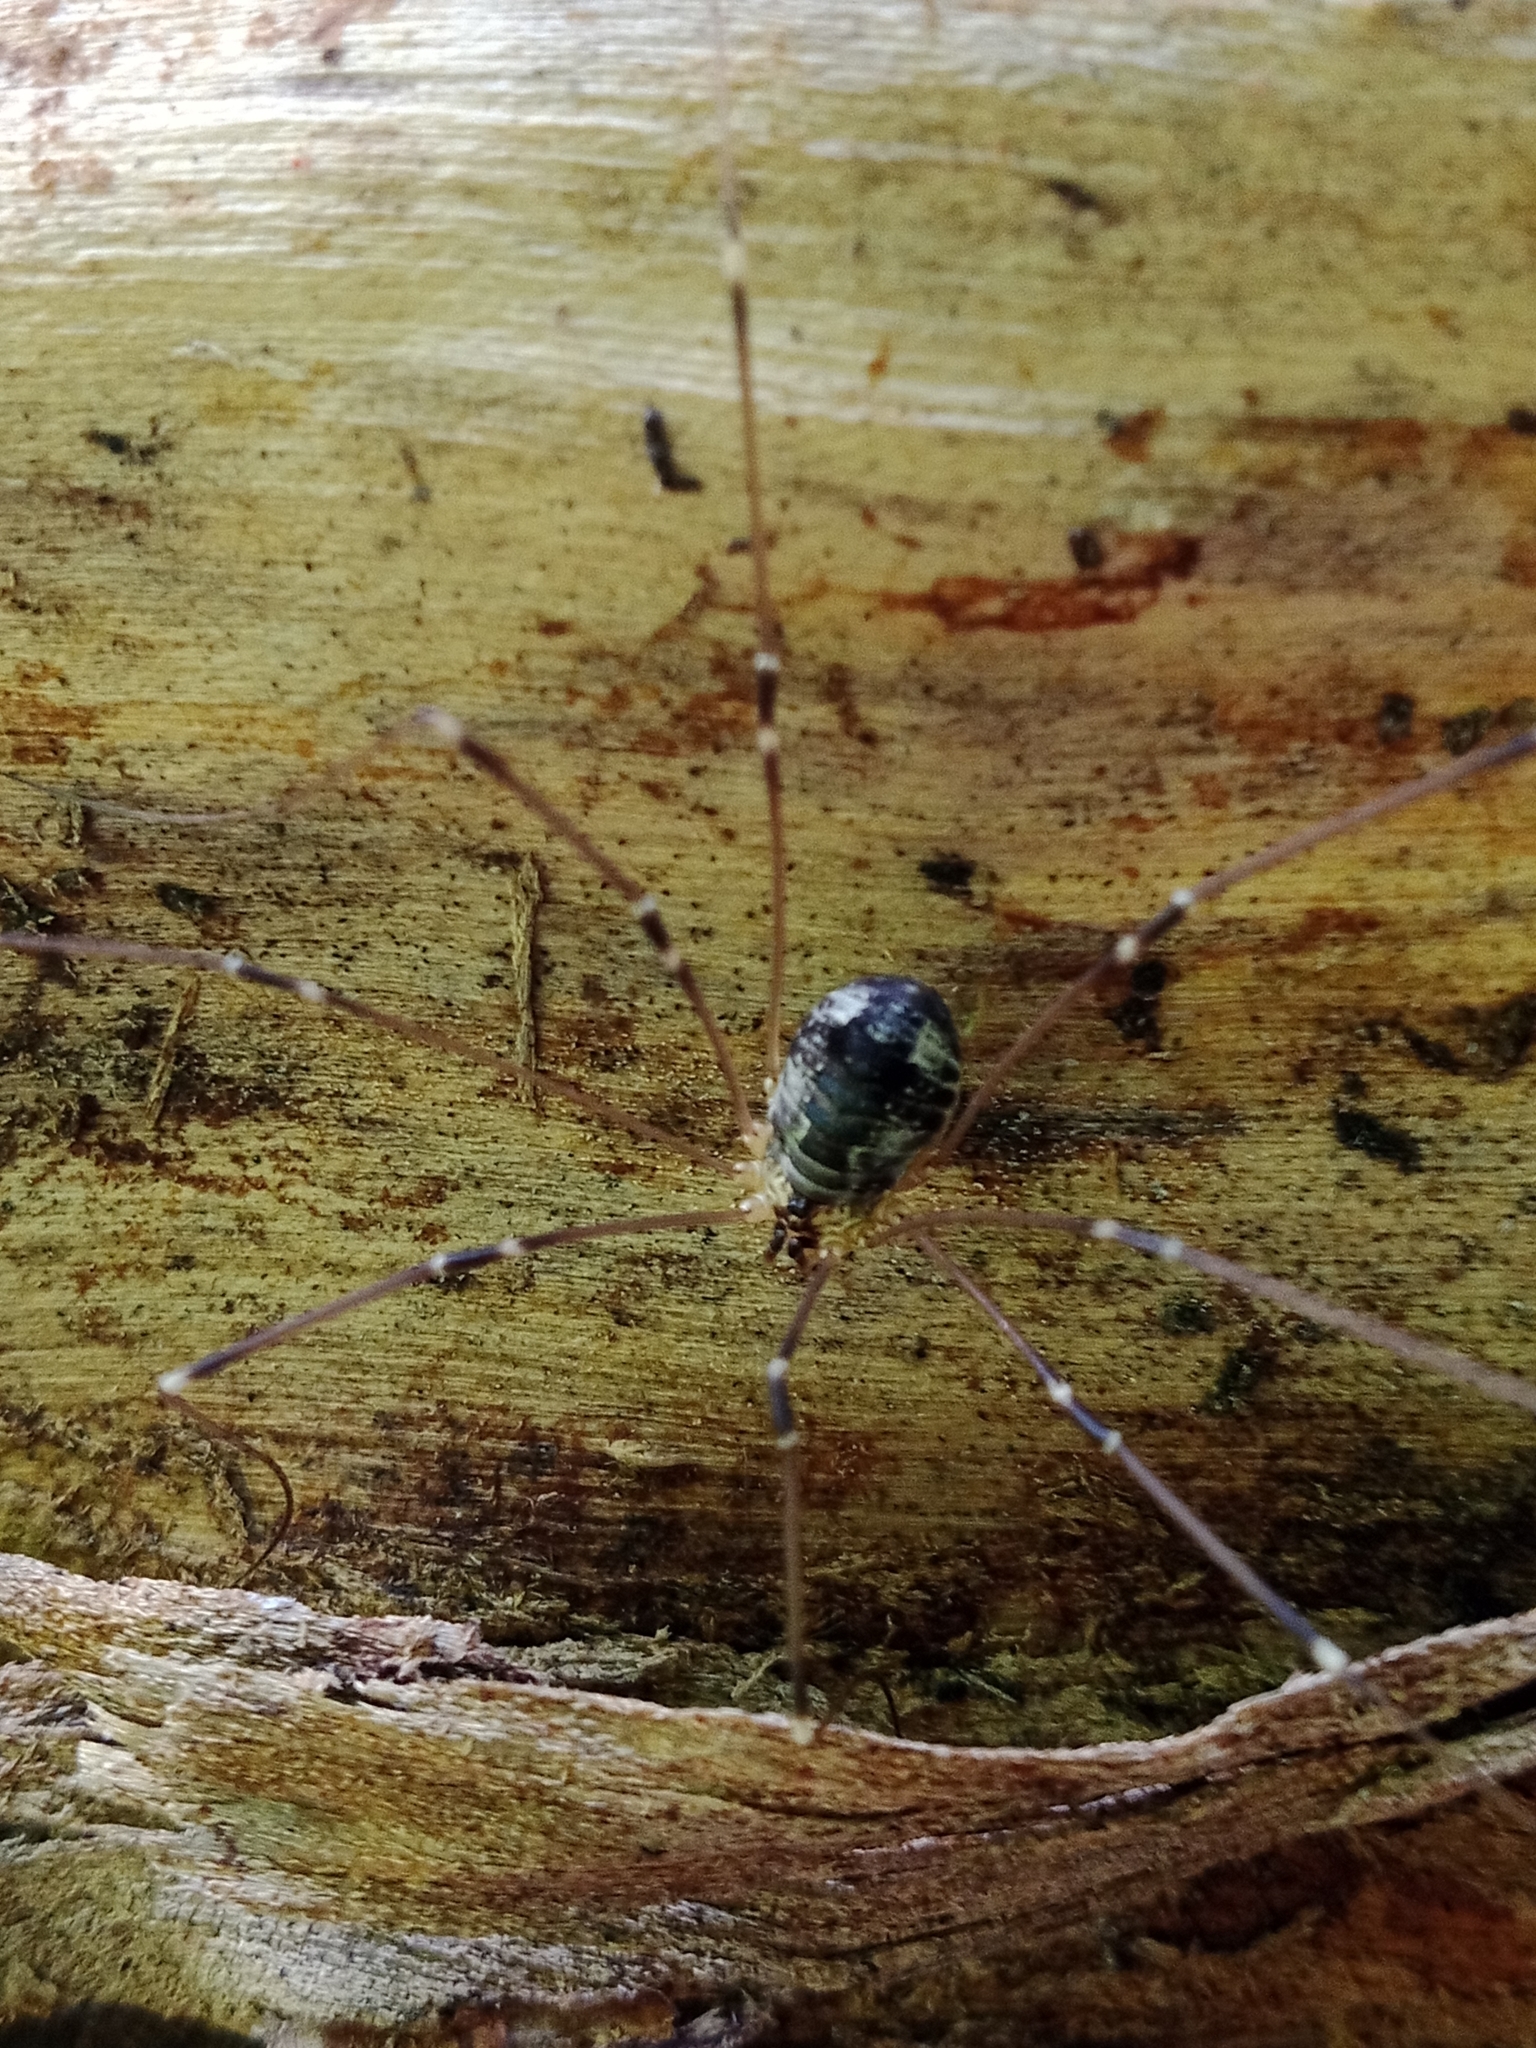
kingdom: Animalia
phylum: Arthropoda
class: Arachnida
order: Opiliones
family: Sclerosomatidae
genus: Leiobunum
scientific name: Leiobunum gracile
